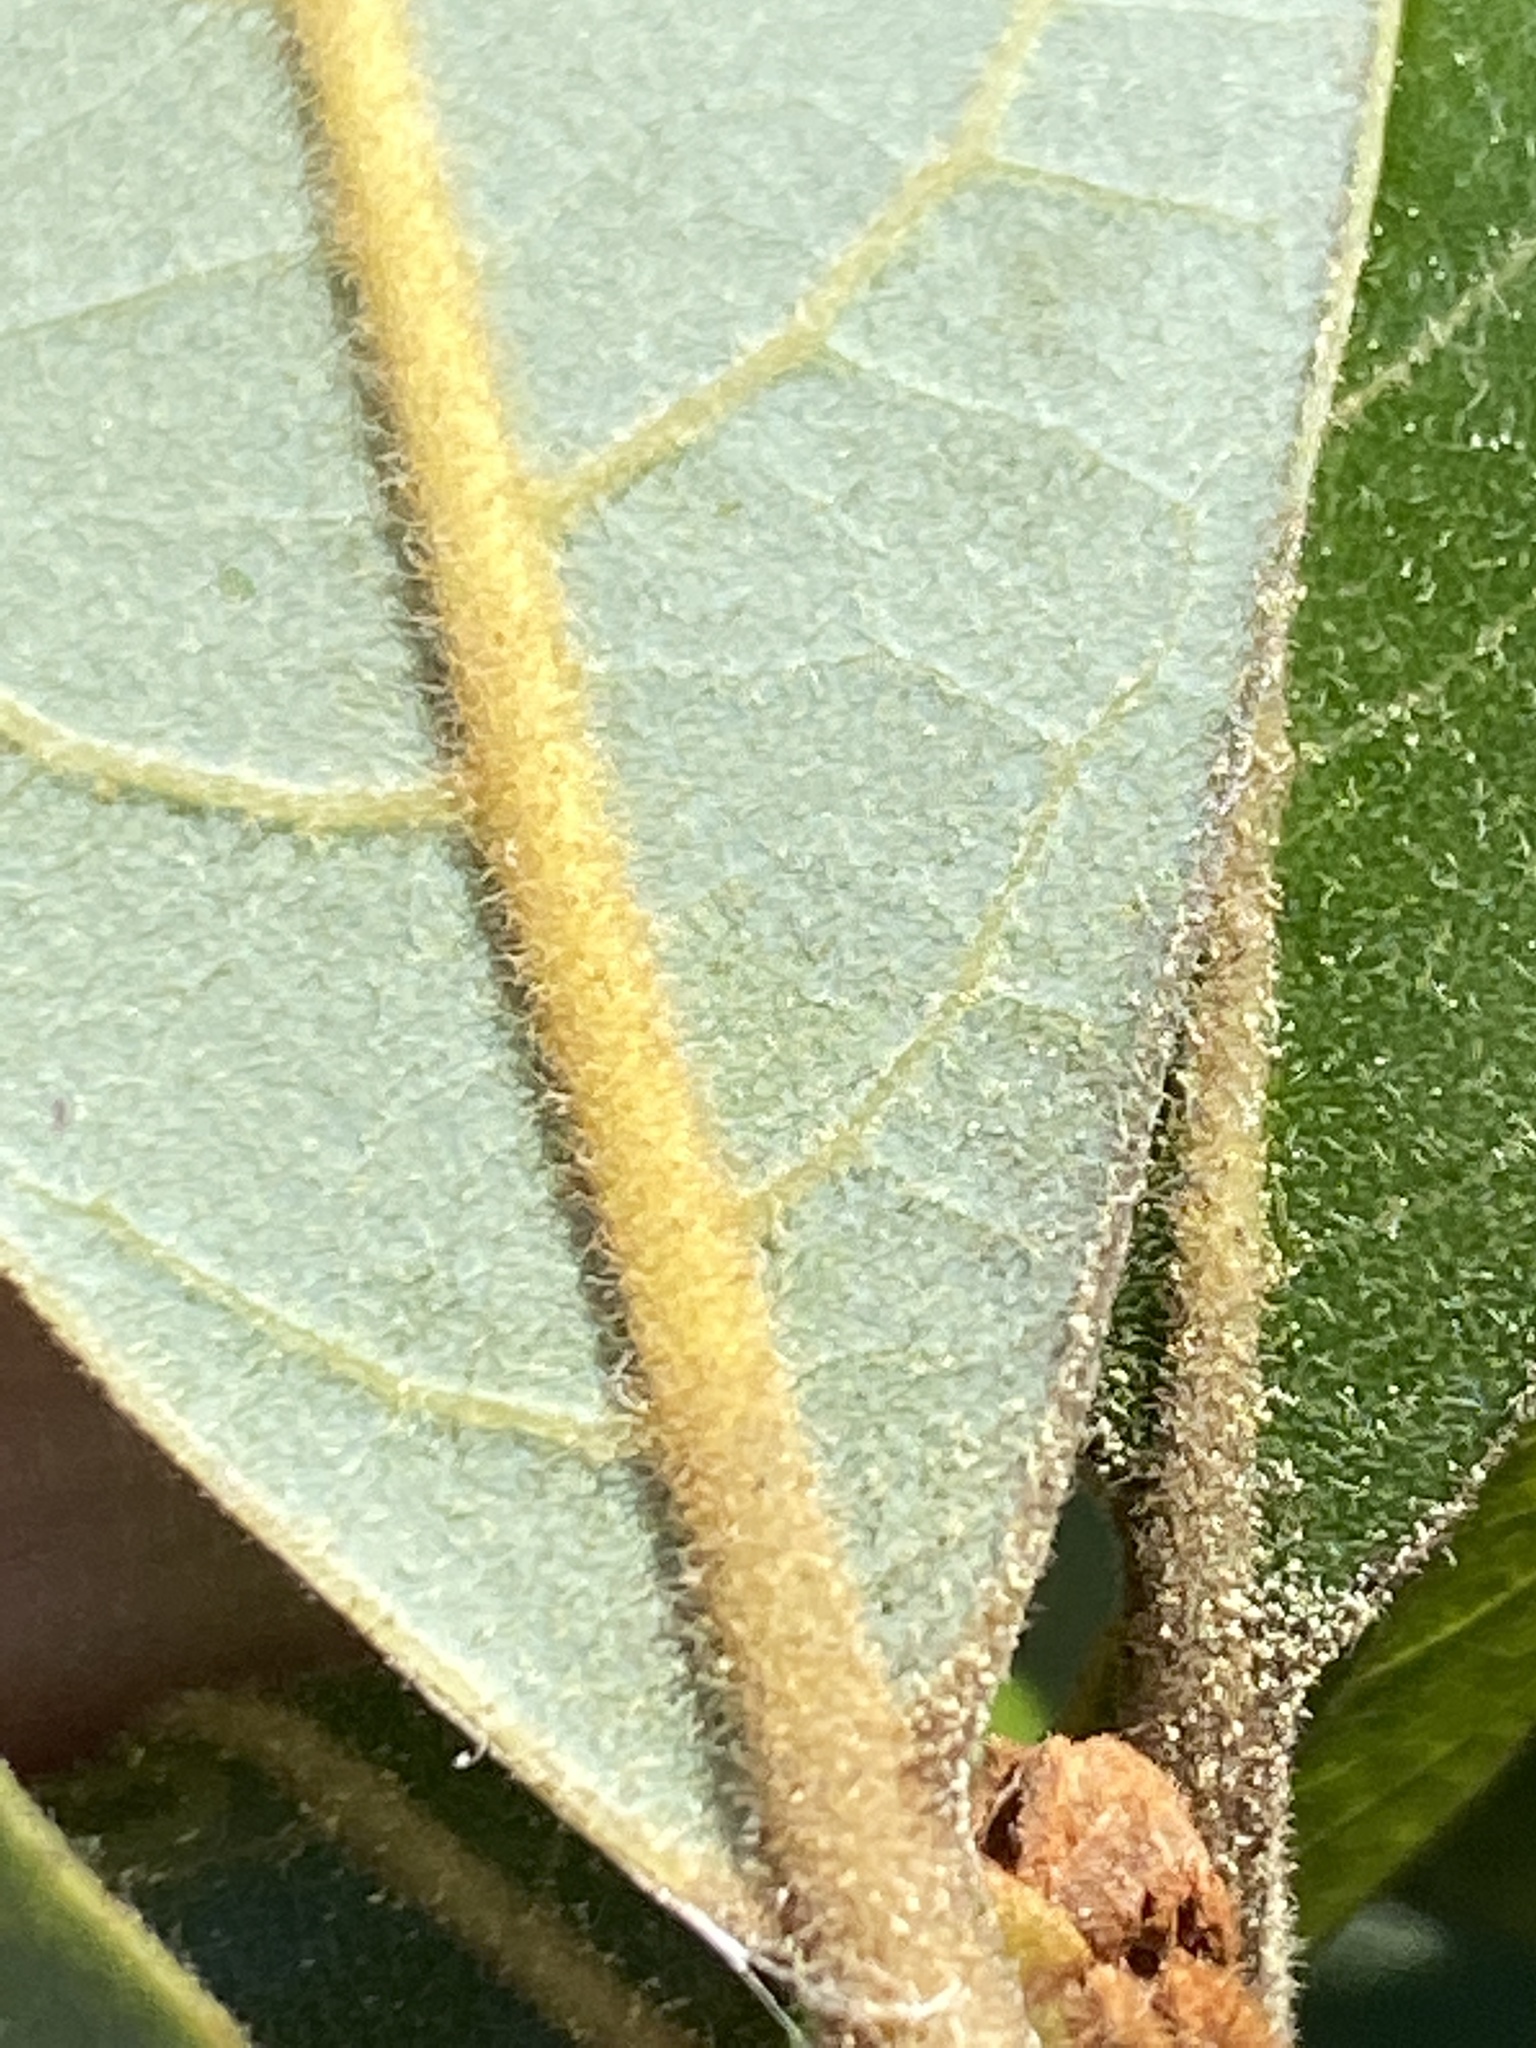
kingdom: Plantae
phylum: Tracheophyta
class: Magnoliopsida
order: Laurales
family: Lauraceae
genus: Persea
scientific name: Persea palustris
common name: Swampbay
